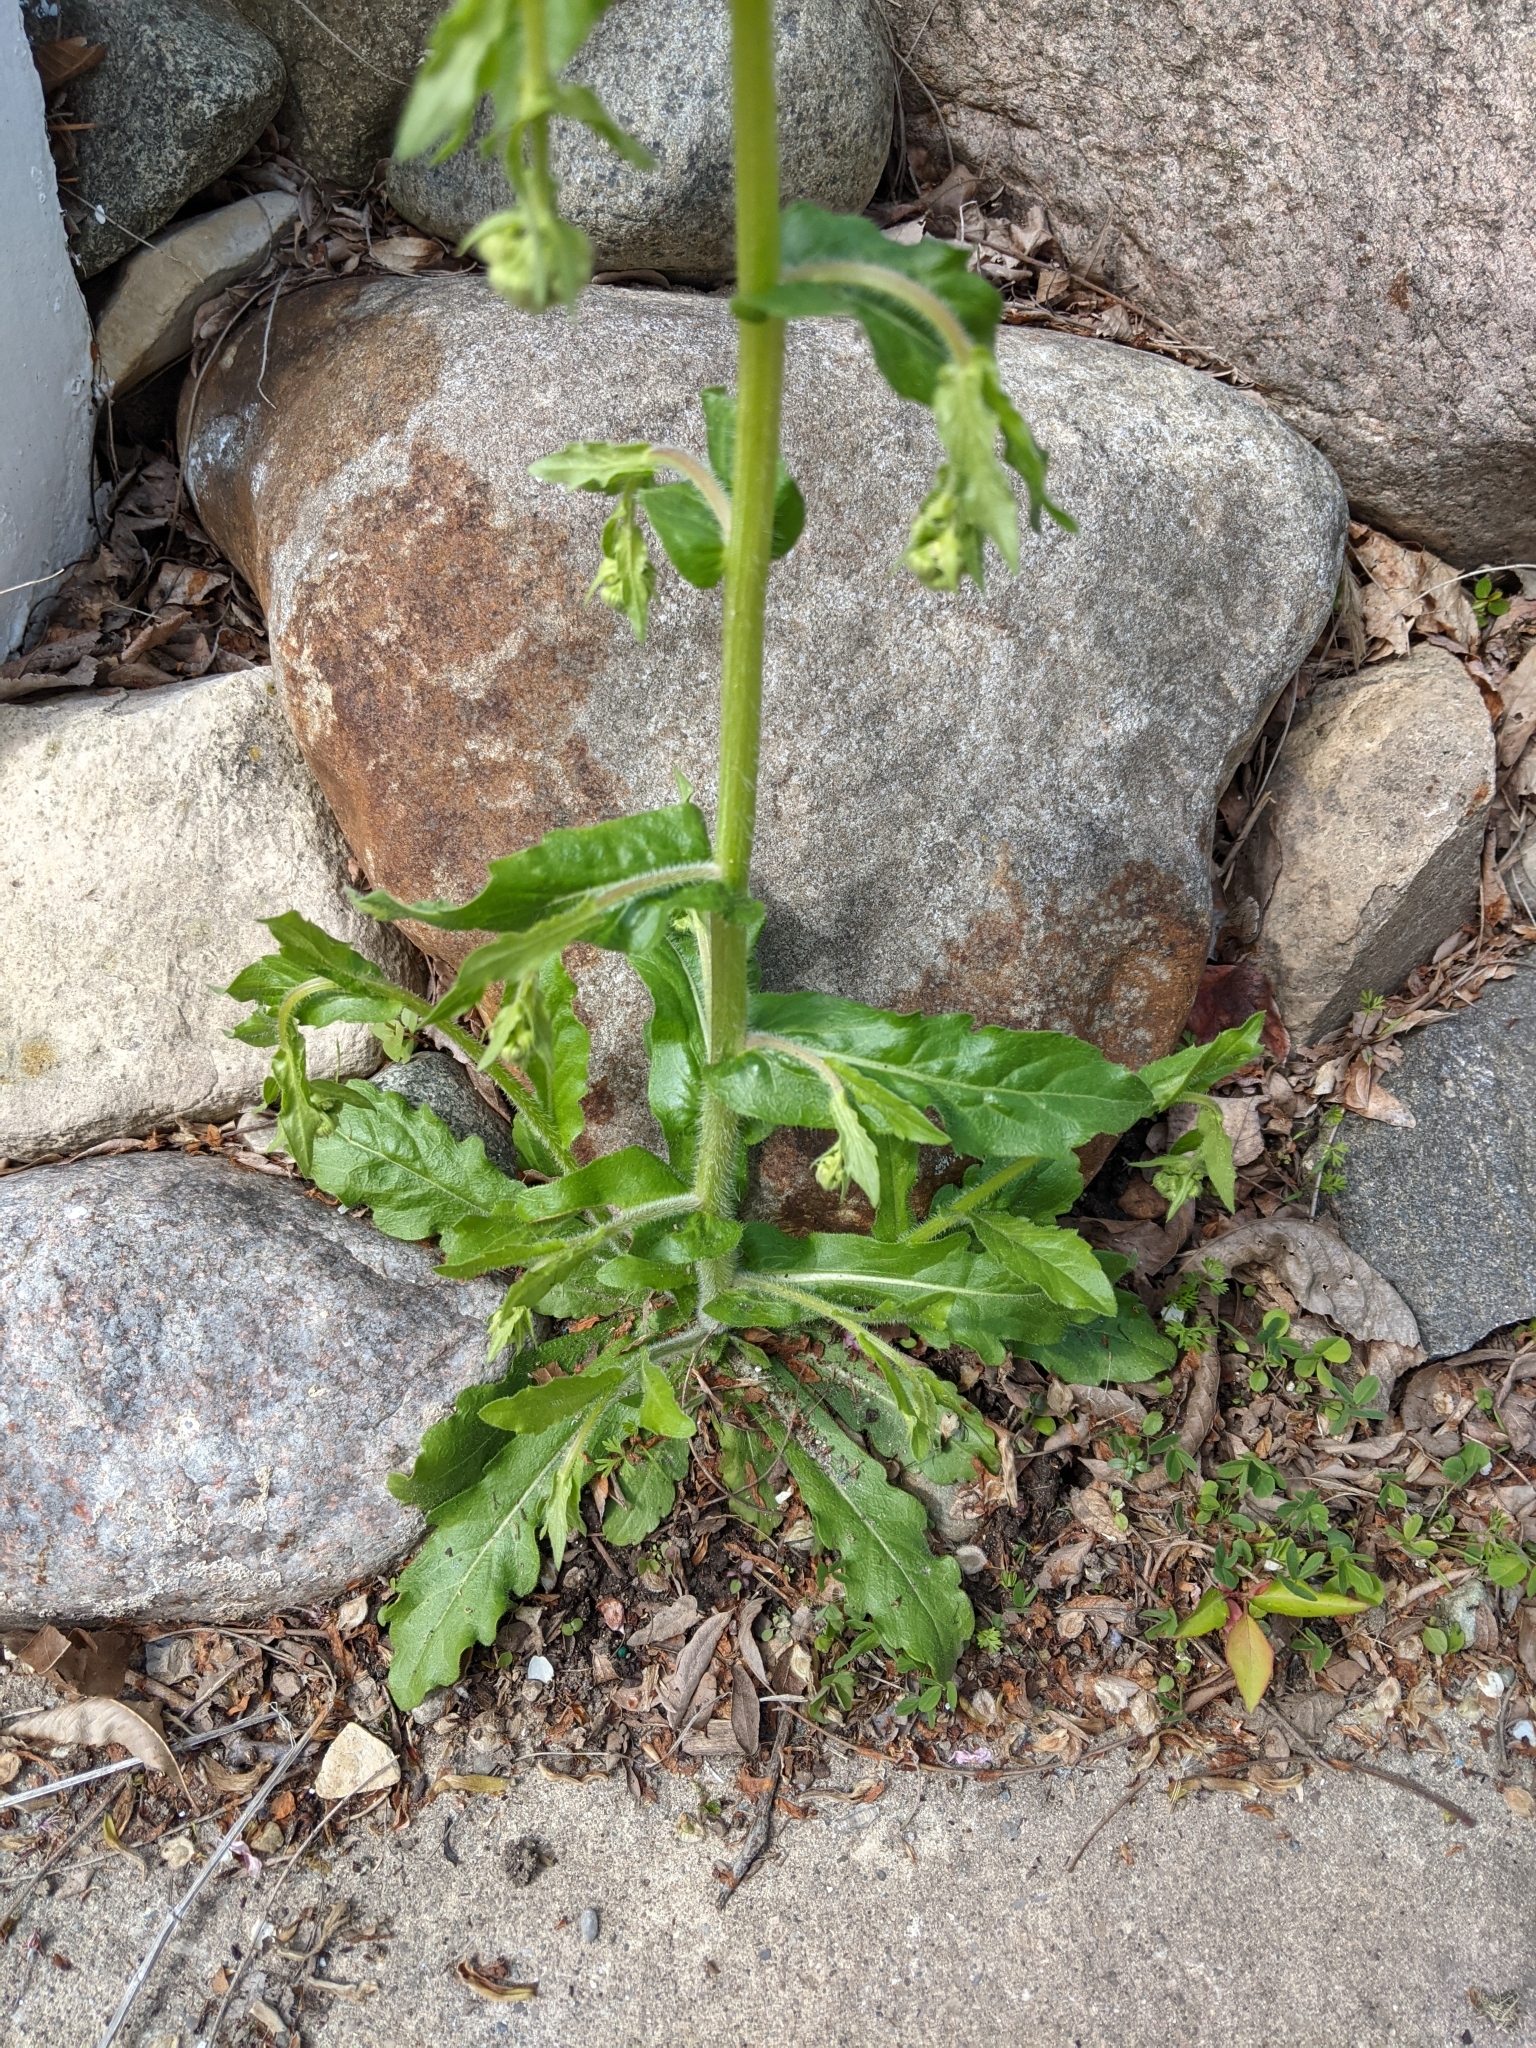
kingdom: Plantae
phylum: Tracheophyta
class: Magnoliopsida
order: Asterales
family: Asteraceae
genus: Erigeron
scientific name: Erigeron philadelphicus
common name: Robin's-plantain
